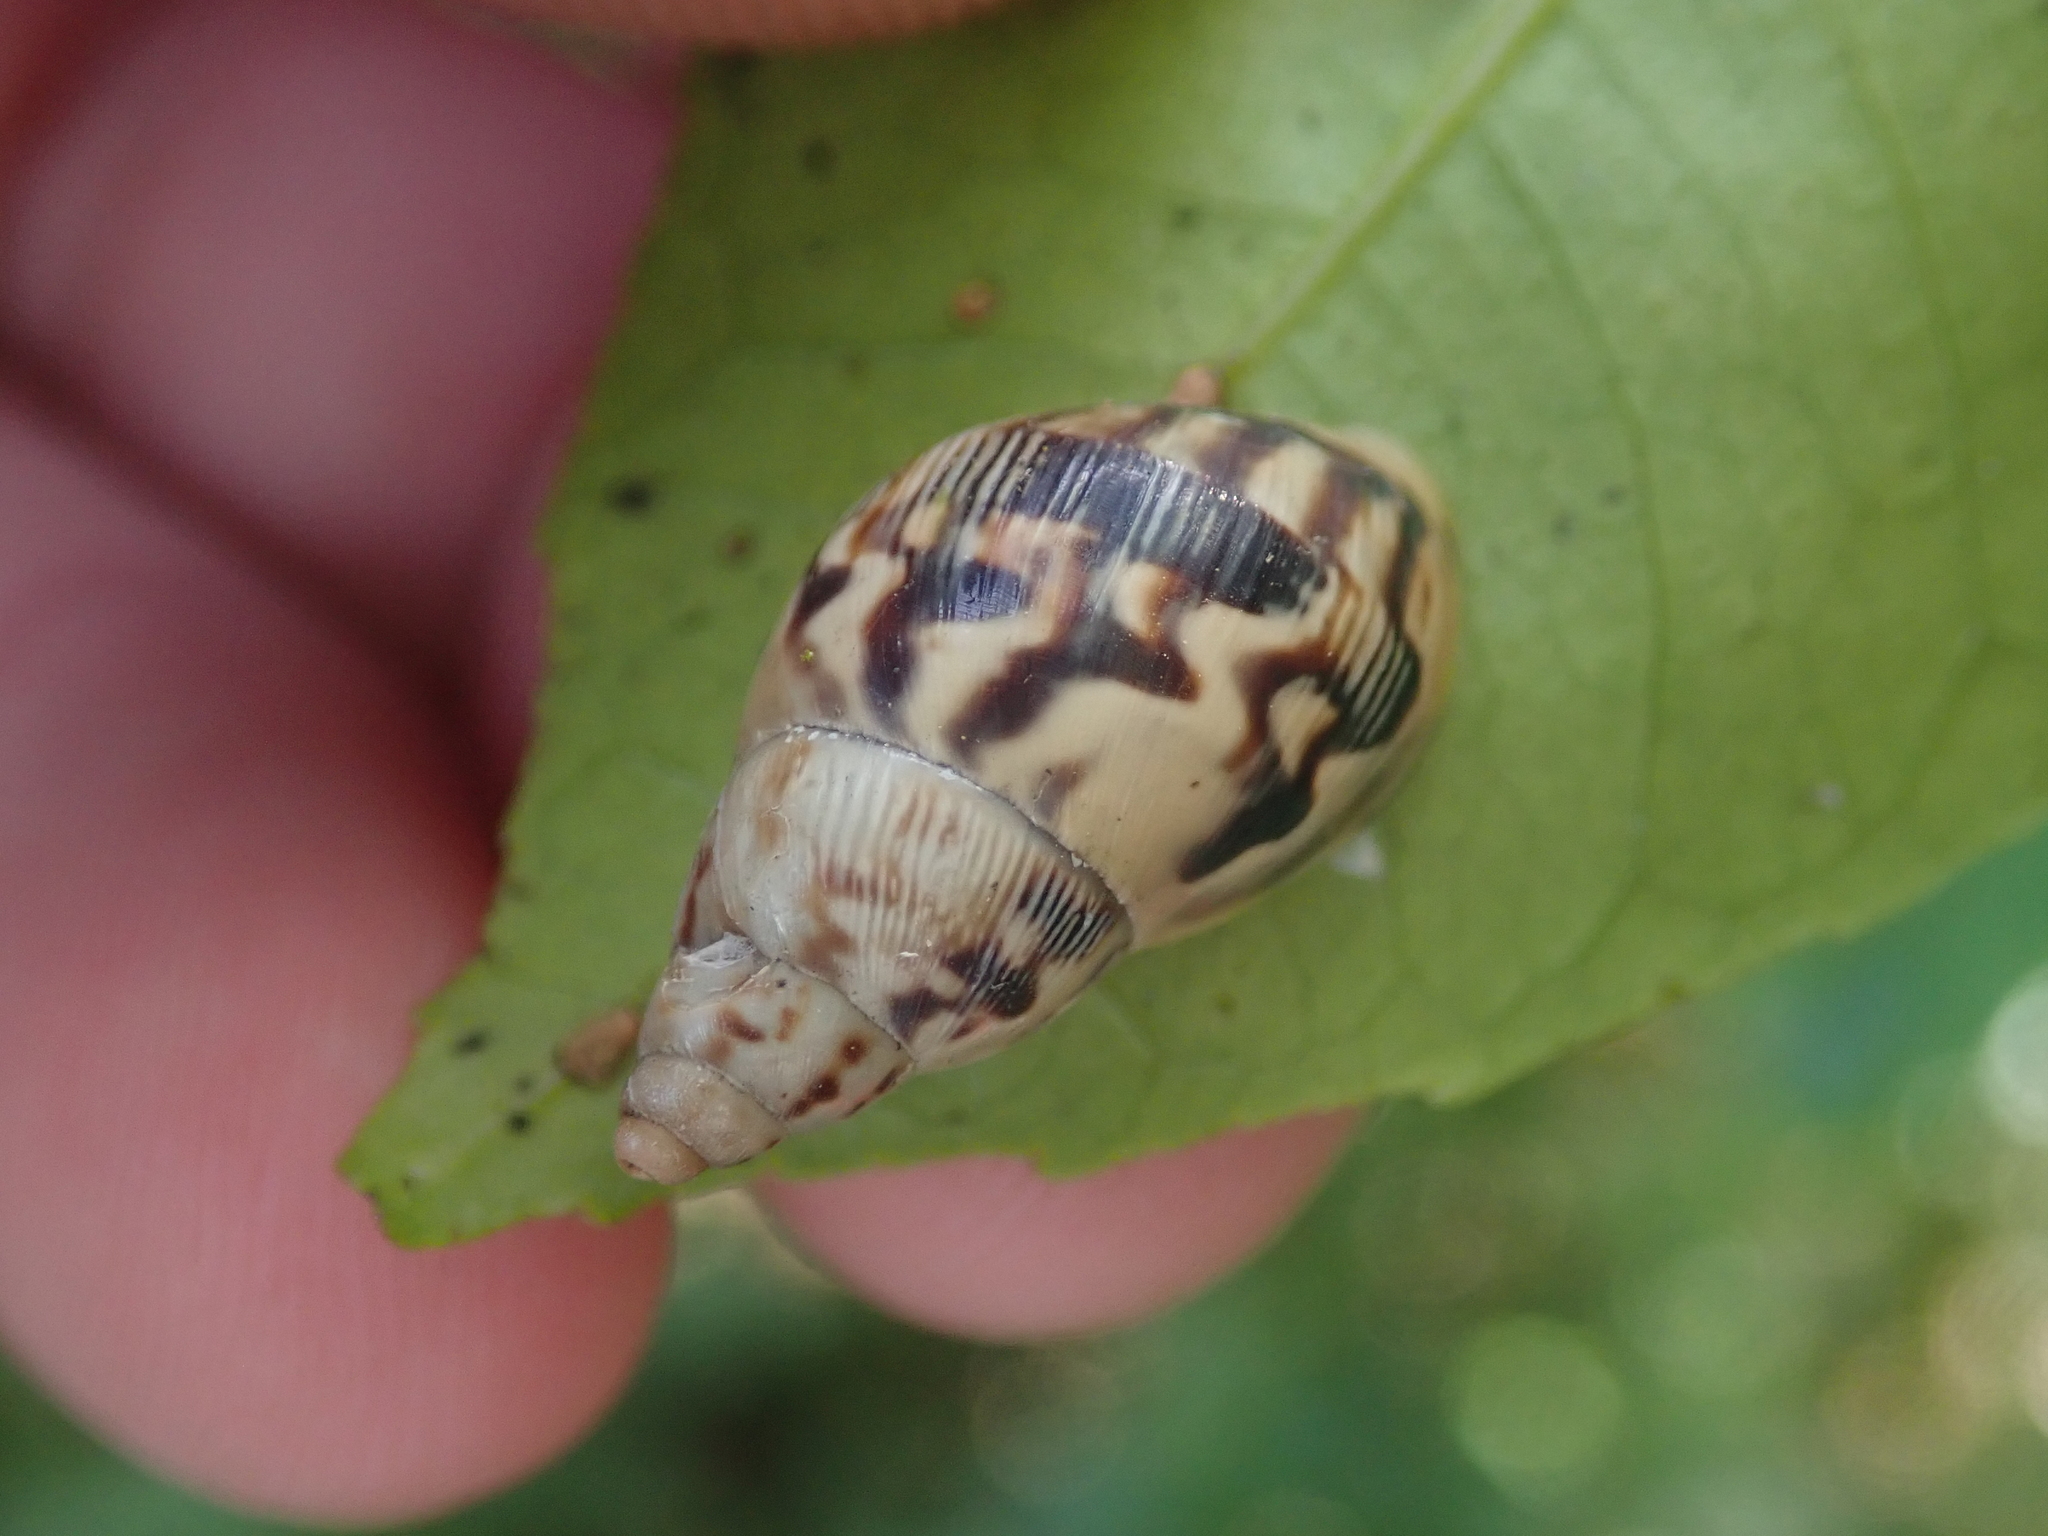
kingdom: Animalia
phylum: Mollusca
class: Gastropoda
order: Stylommatophora
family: Bulimulidae
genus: Drymaeus
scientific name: Drymaeus papyraceus
